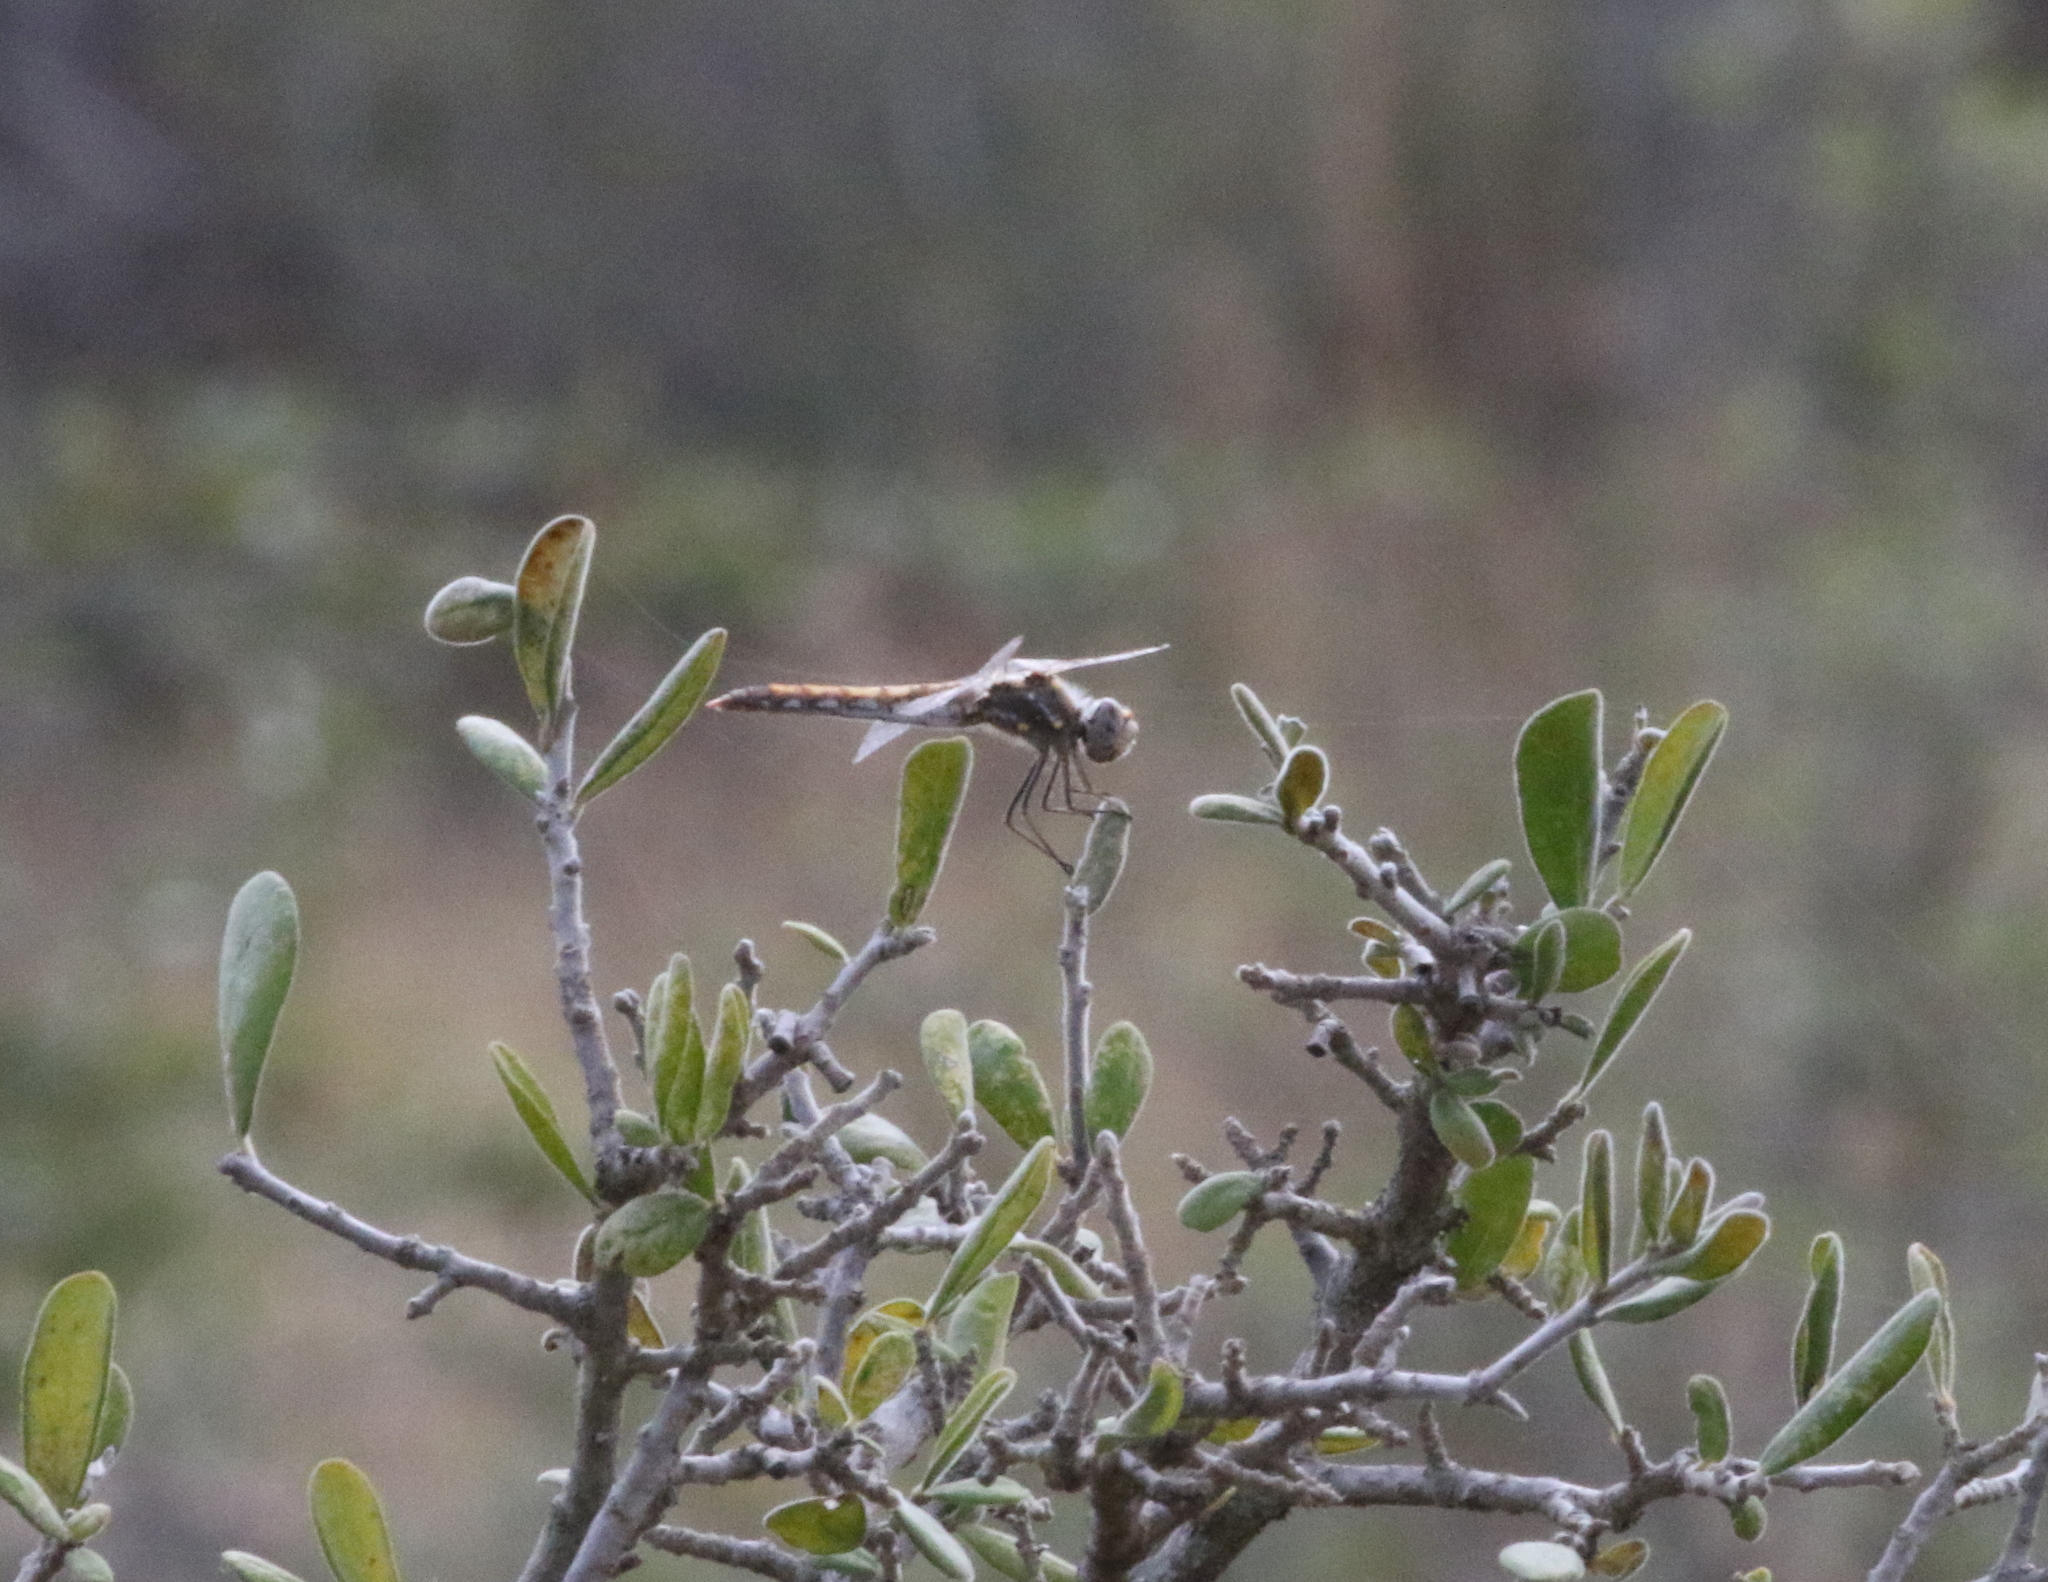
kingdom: Animalia
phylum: Arthropoda
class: Insecta
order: Odonata
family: Libellulidae
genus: Sympetrum
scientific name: Sympetrum corruptum
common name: Variegated meadowhawk
